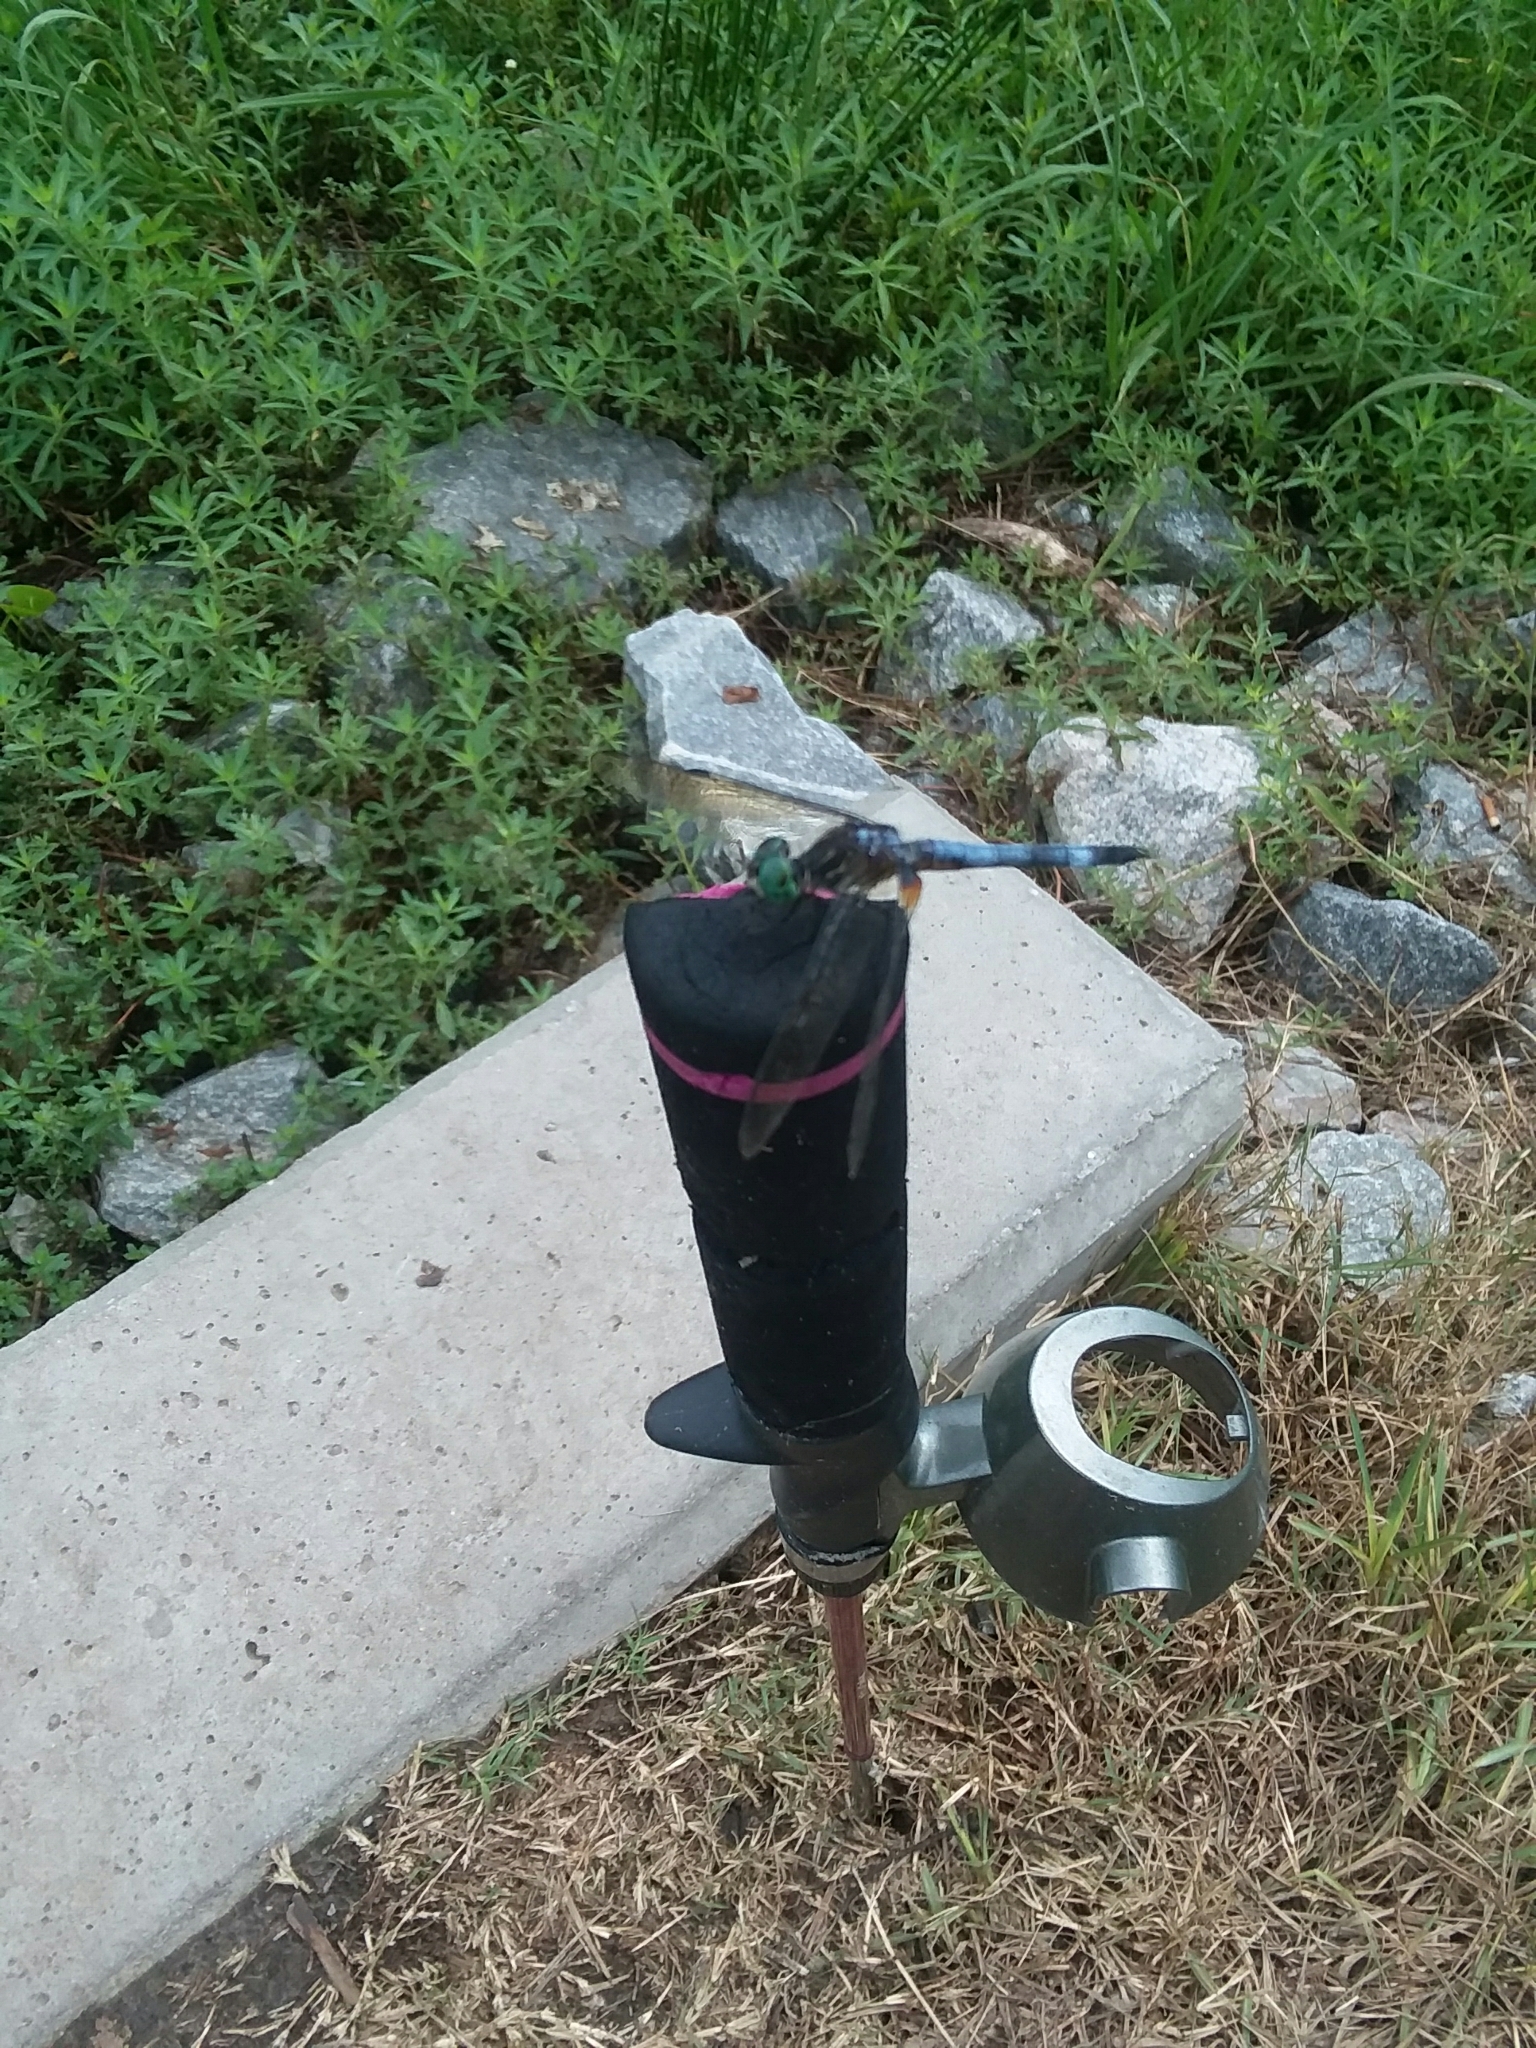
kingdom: Animalia
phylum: Arthropoda
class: Insecta
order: Odonata
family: Libellulidae
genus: Pachydiplax
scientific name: Pachydiplax longipennis
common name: Blue dasher
